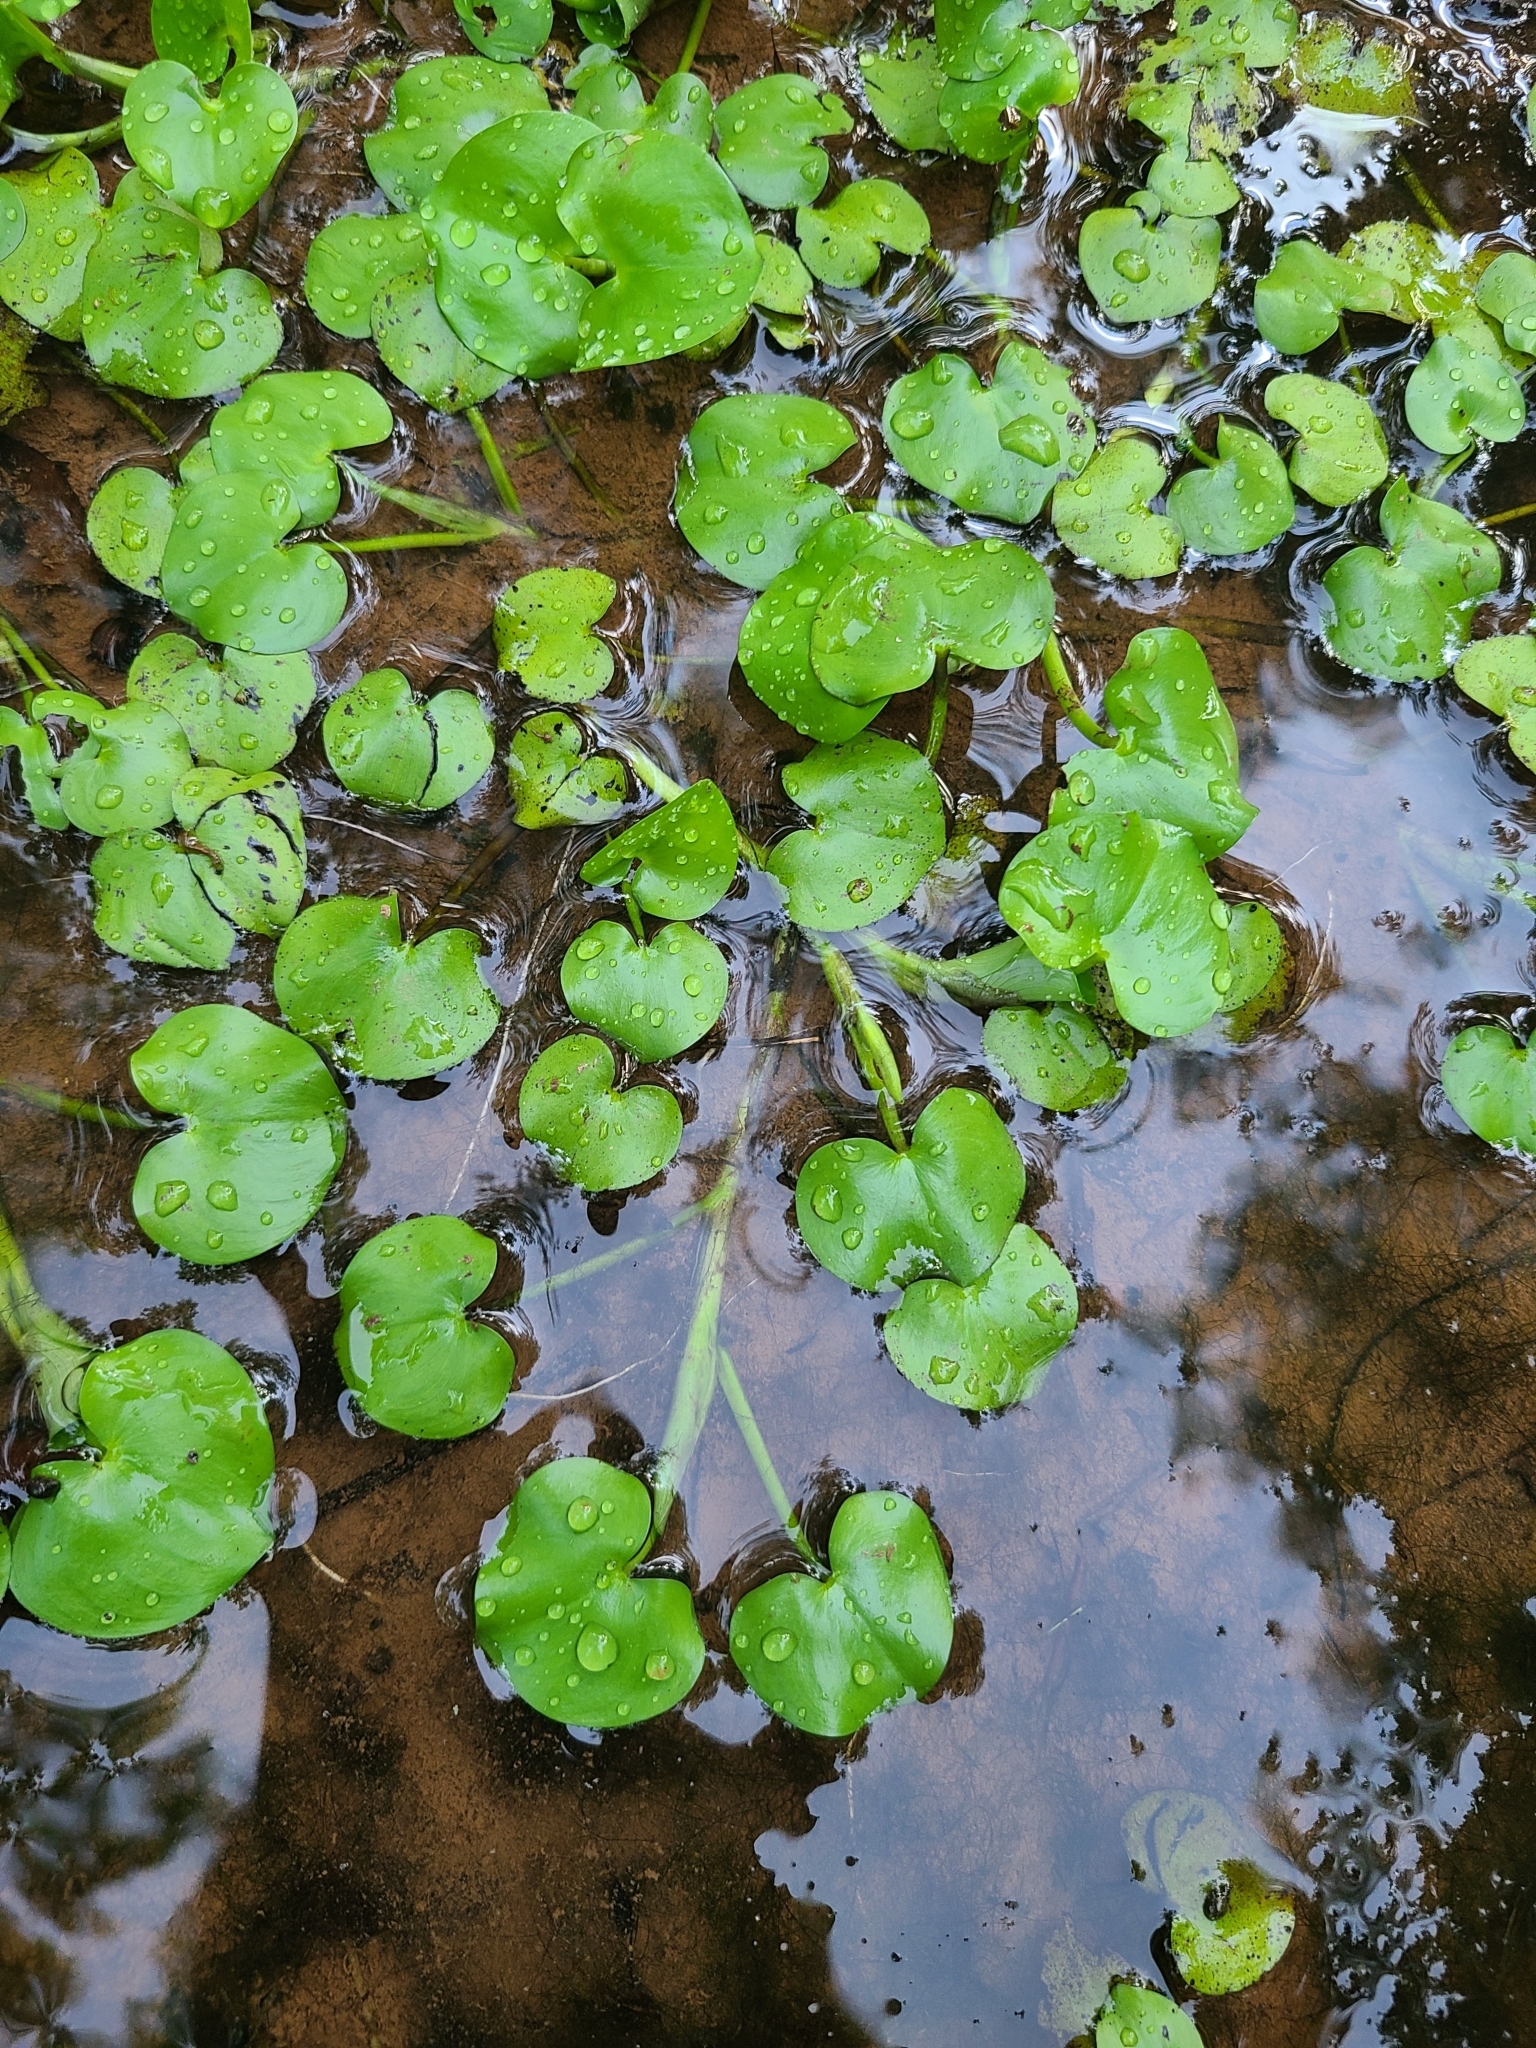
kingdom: Plantae
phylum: Tracheophyta
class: Liliopsida
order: Commelinales
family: Pontederiaceae
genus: Heteranthera
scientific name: Heteranthera reniformis
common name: Kidneyleaf mudplantain
